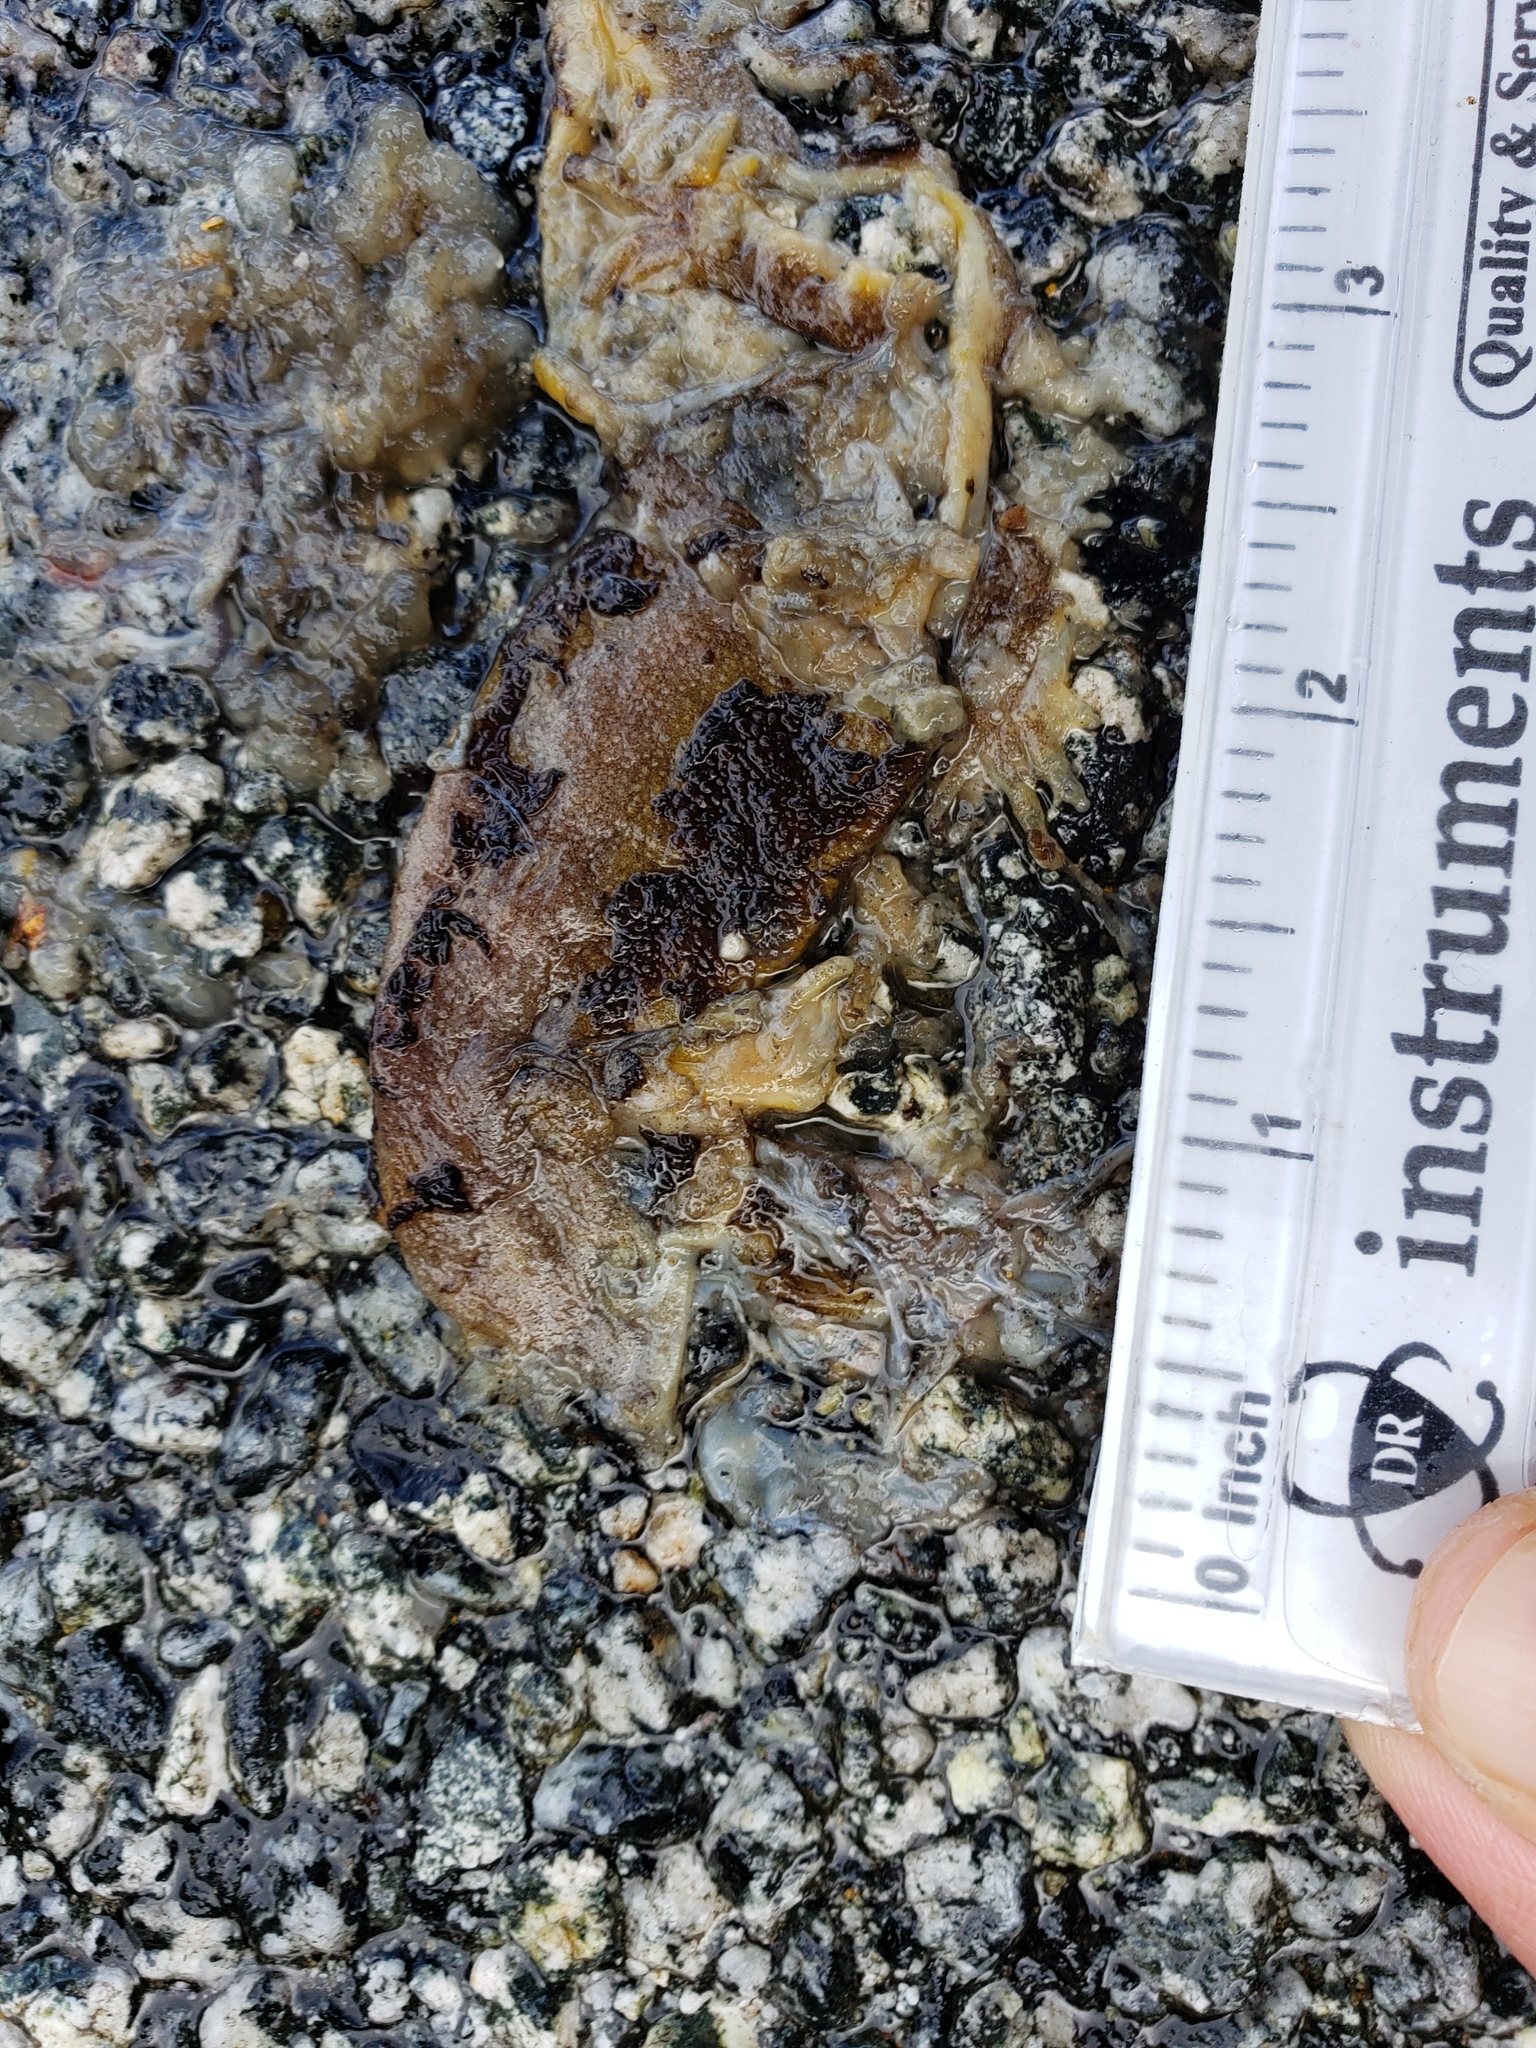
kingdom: Animalia
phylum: Chordata
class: Amphibia
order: Caudata
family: Salamandridae
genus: Taricha
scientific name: Taricha
